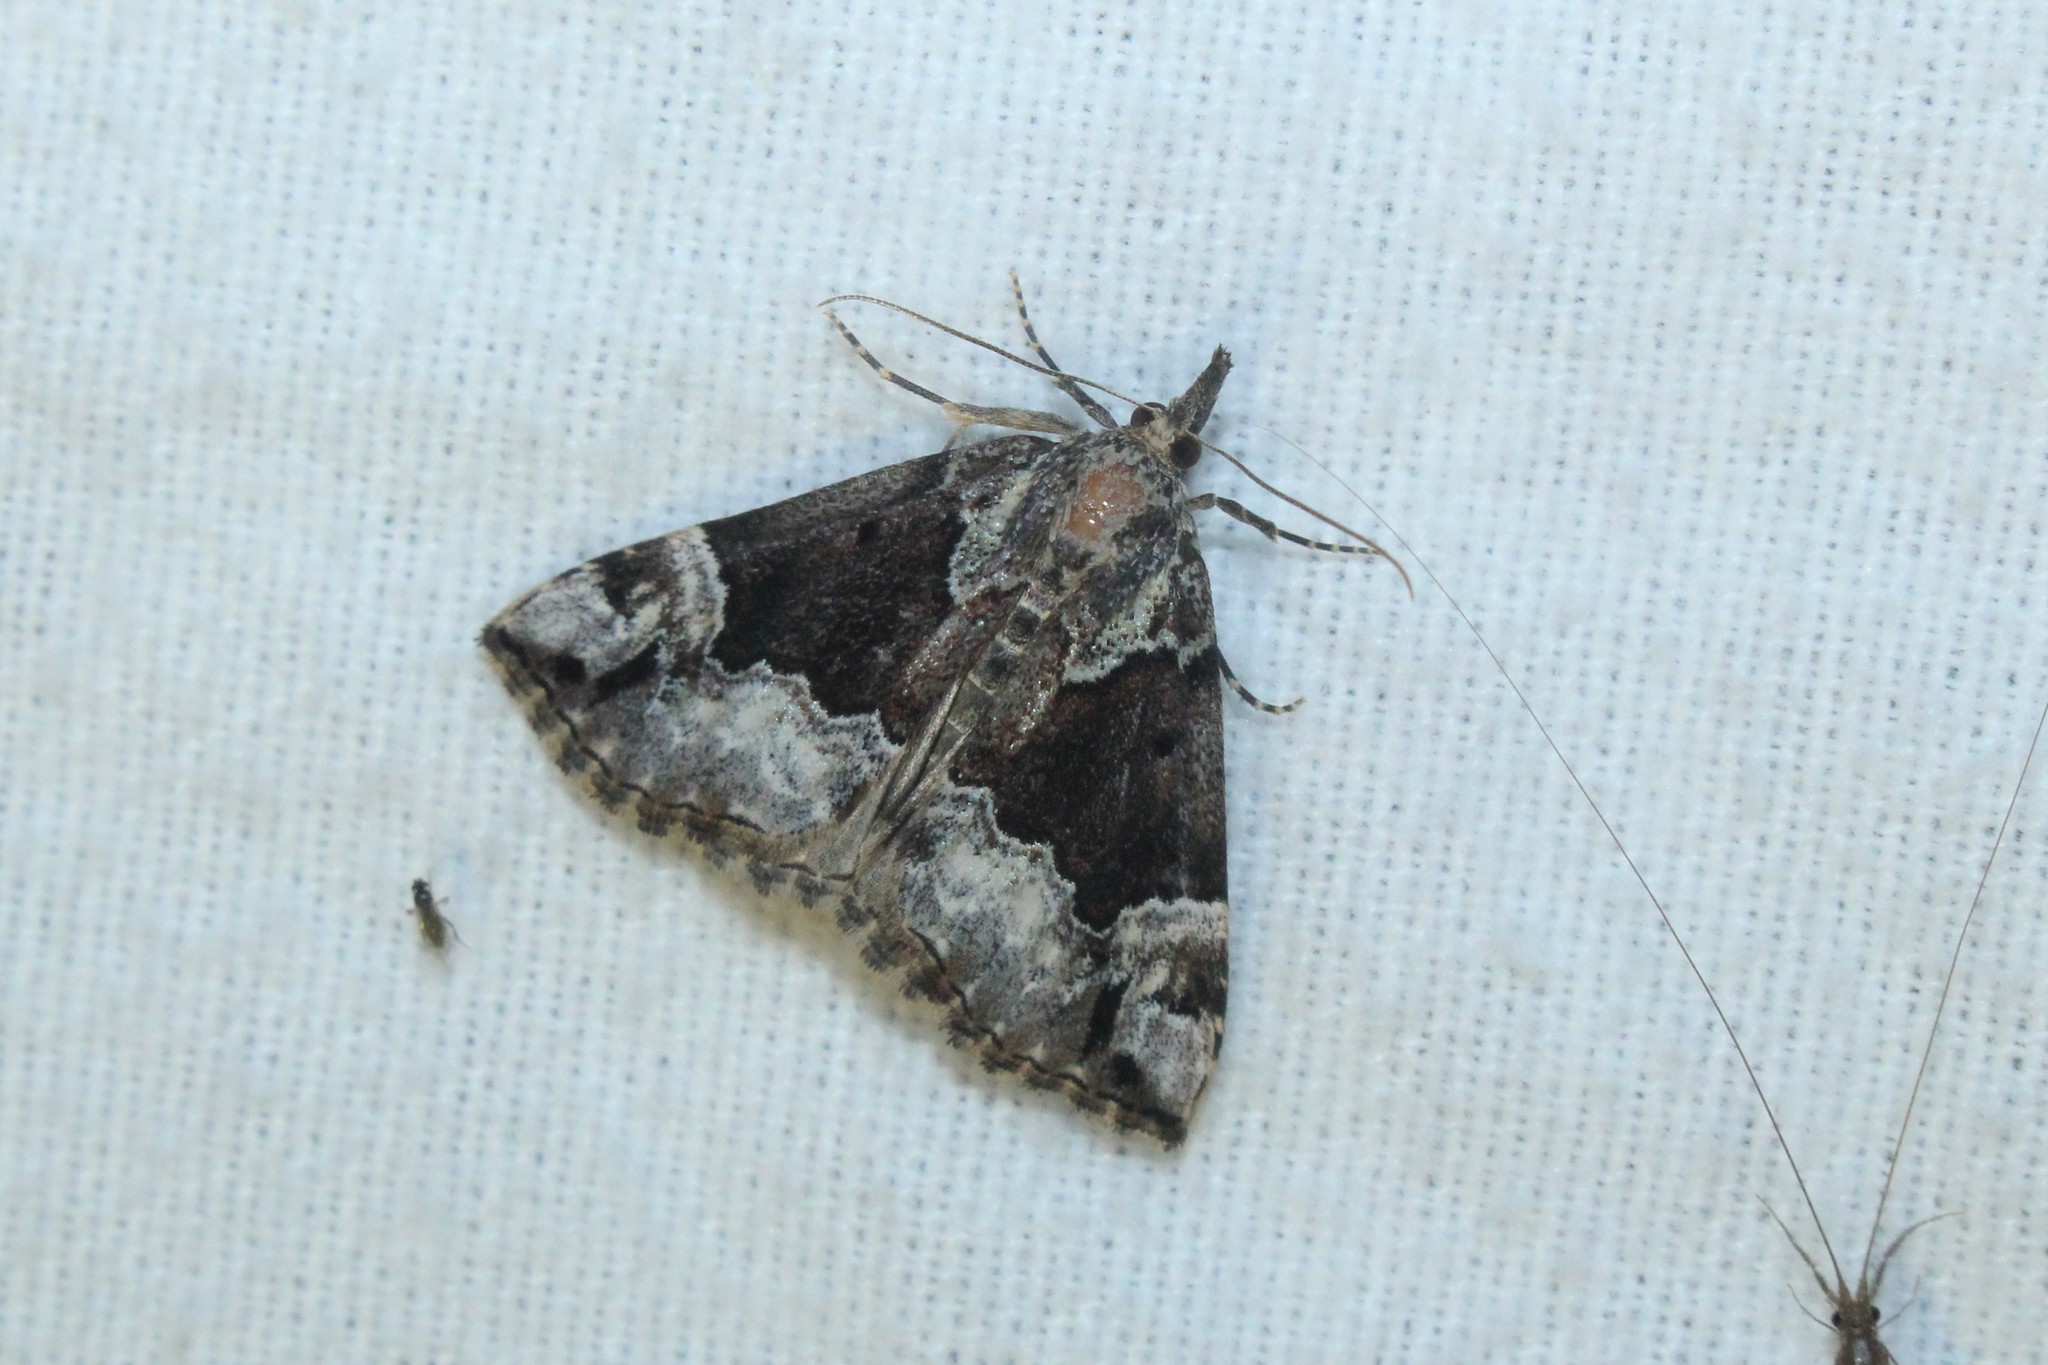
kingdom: Animalia
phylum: Arthropoda
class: Insecta
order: Lepidoptera
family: Erebidae
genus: Hypena
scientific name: Hypena palparia
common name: Mottled bomolocha moth
